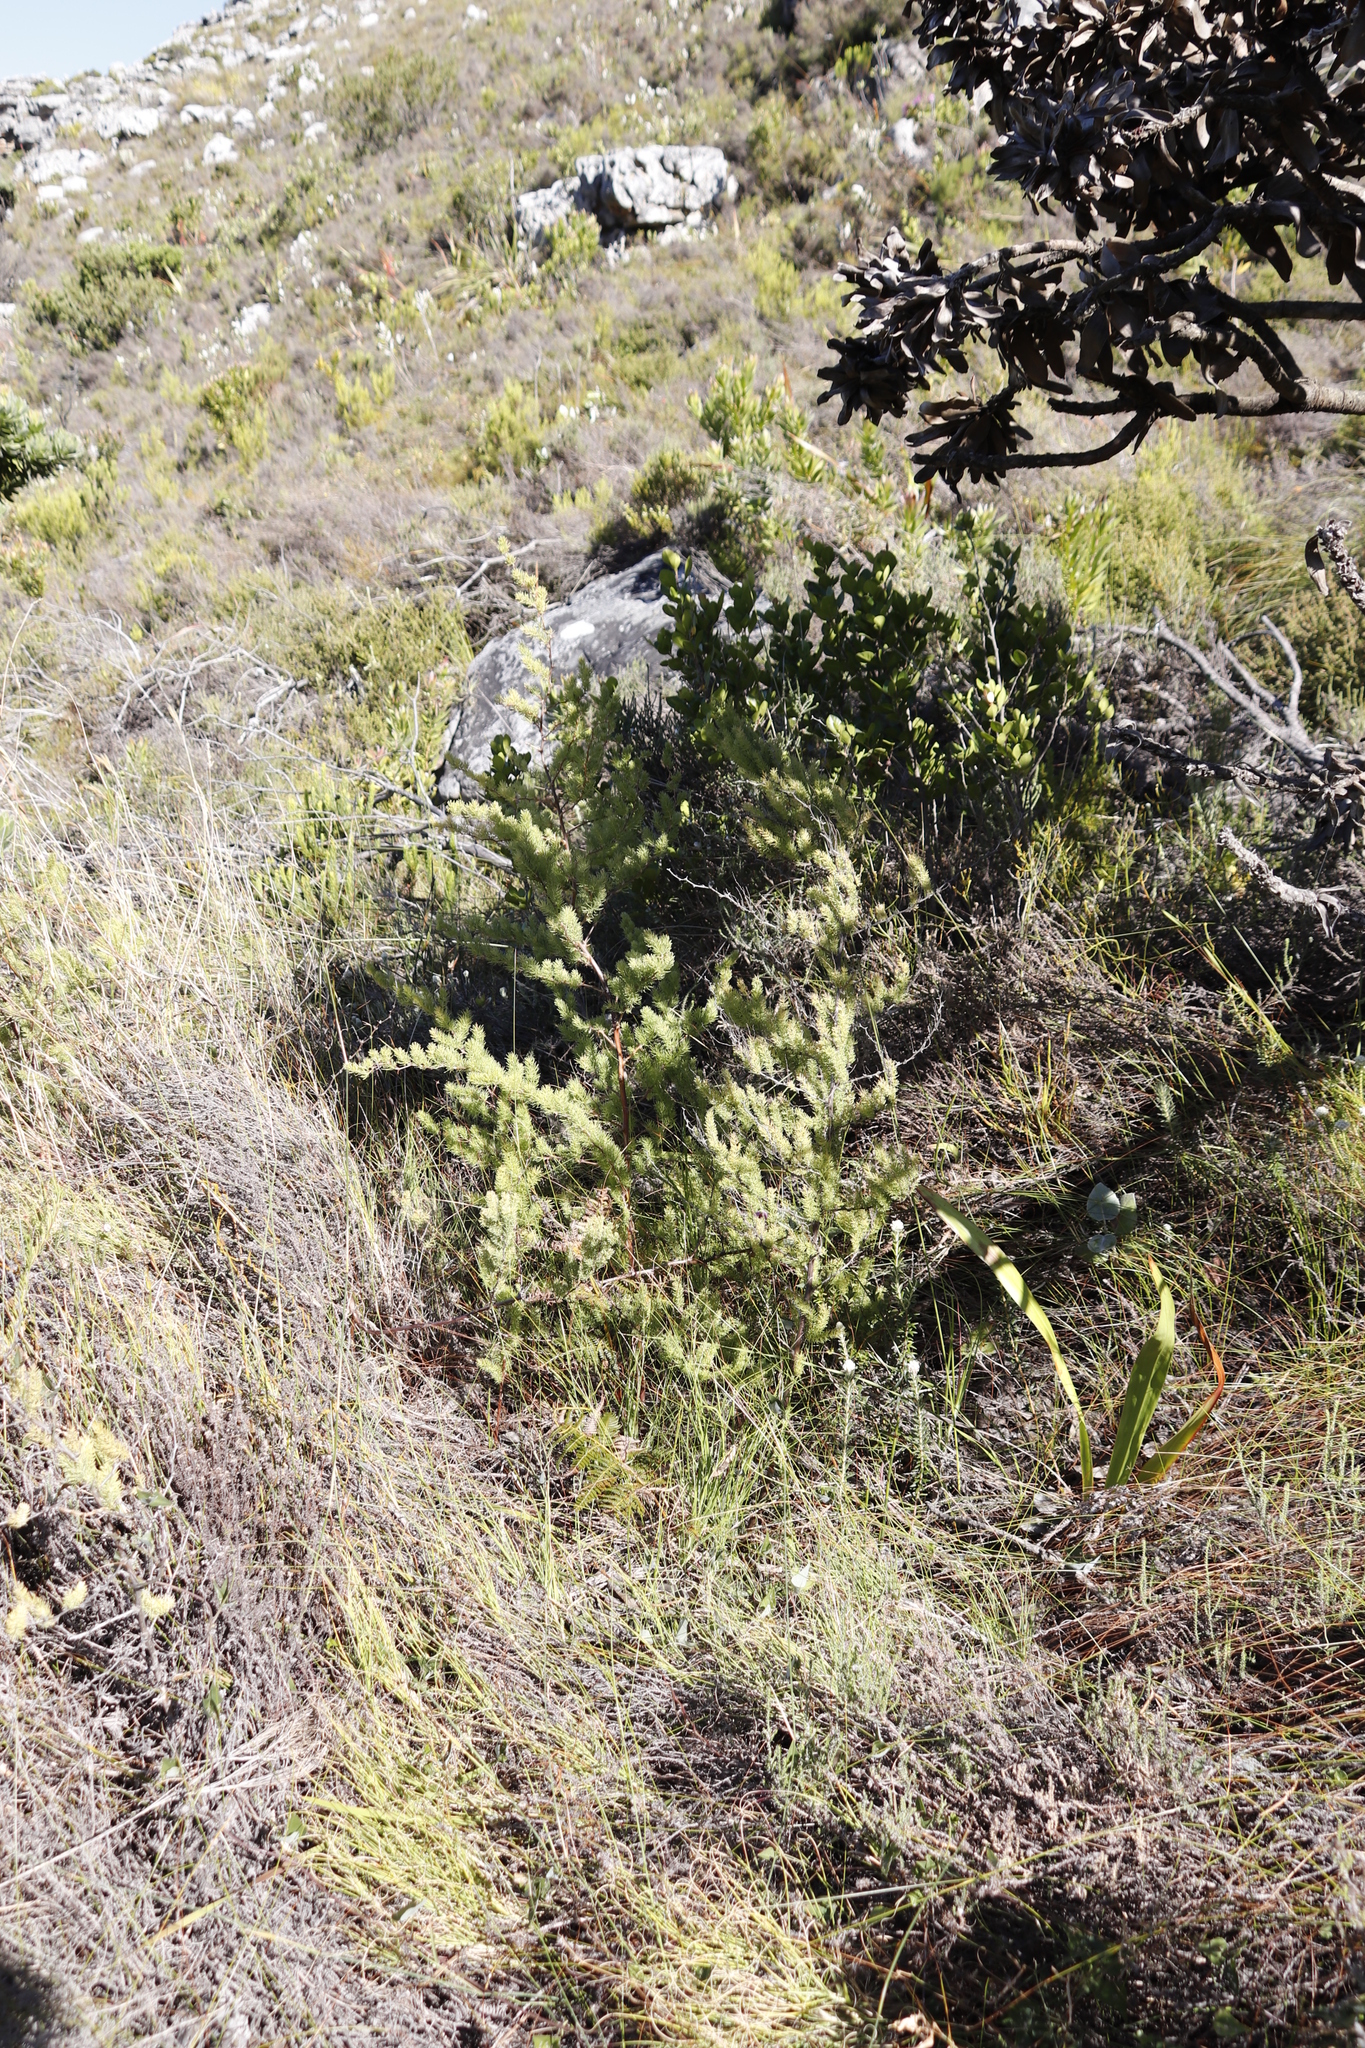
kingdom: Plantae
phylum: Tracheophyta
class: Liliopsida
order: Asparagales
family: Asparagaceae
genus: Asparagus
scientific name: Asparagus rubicundus
